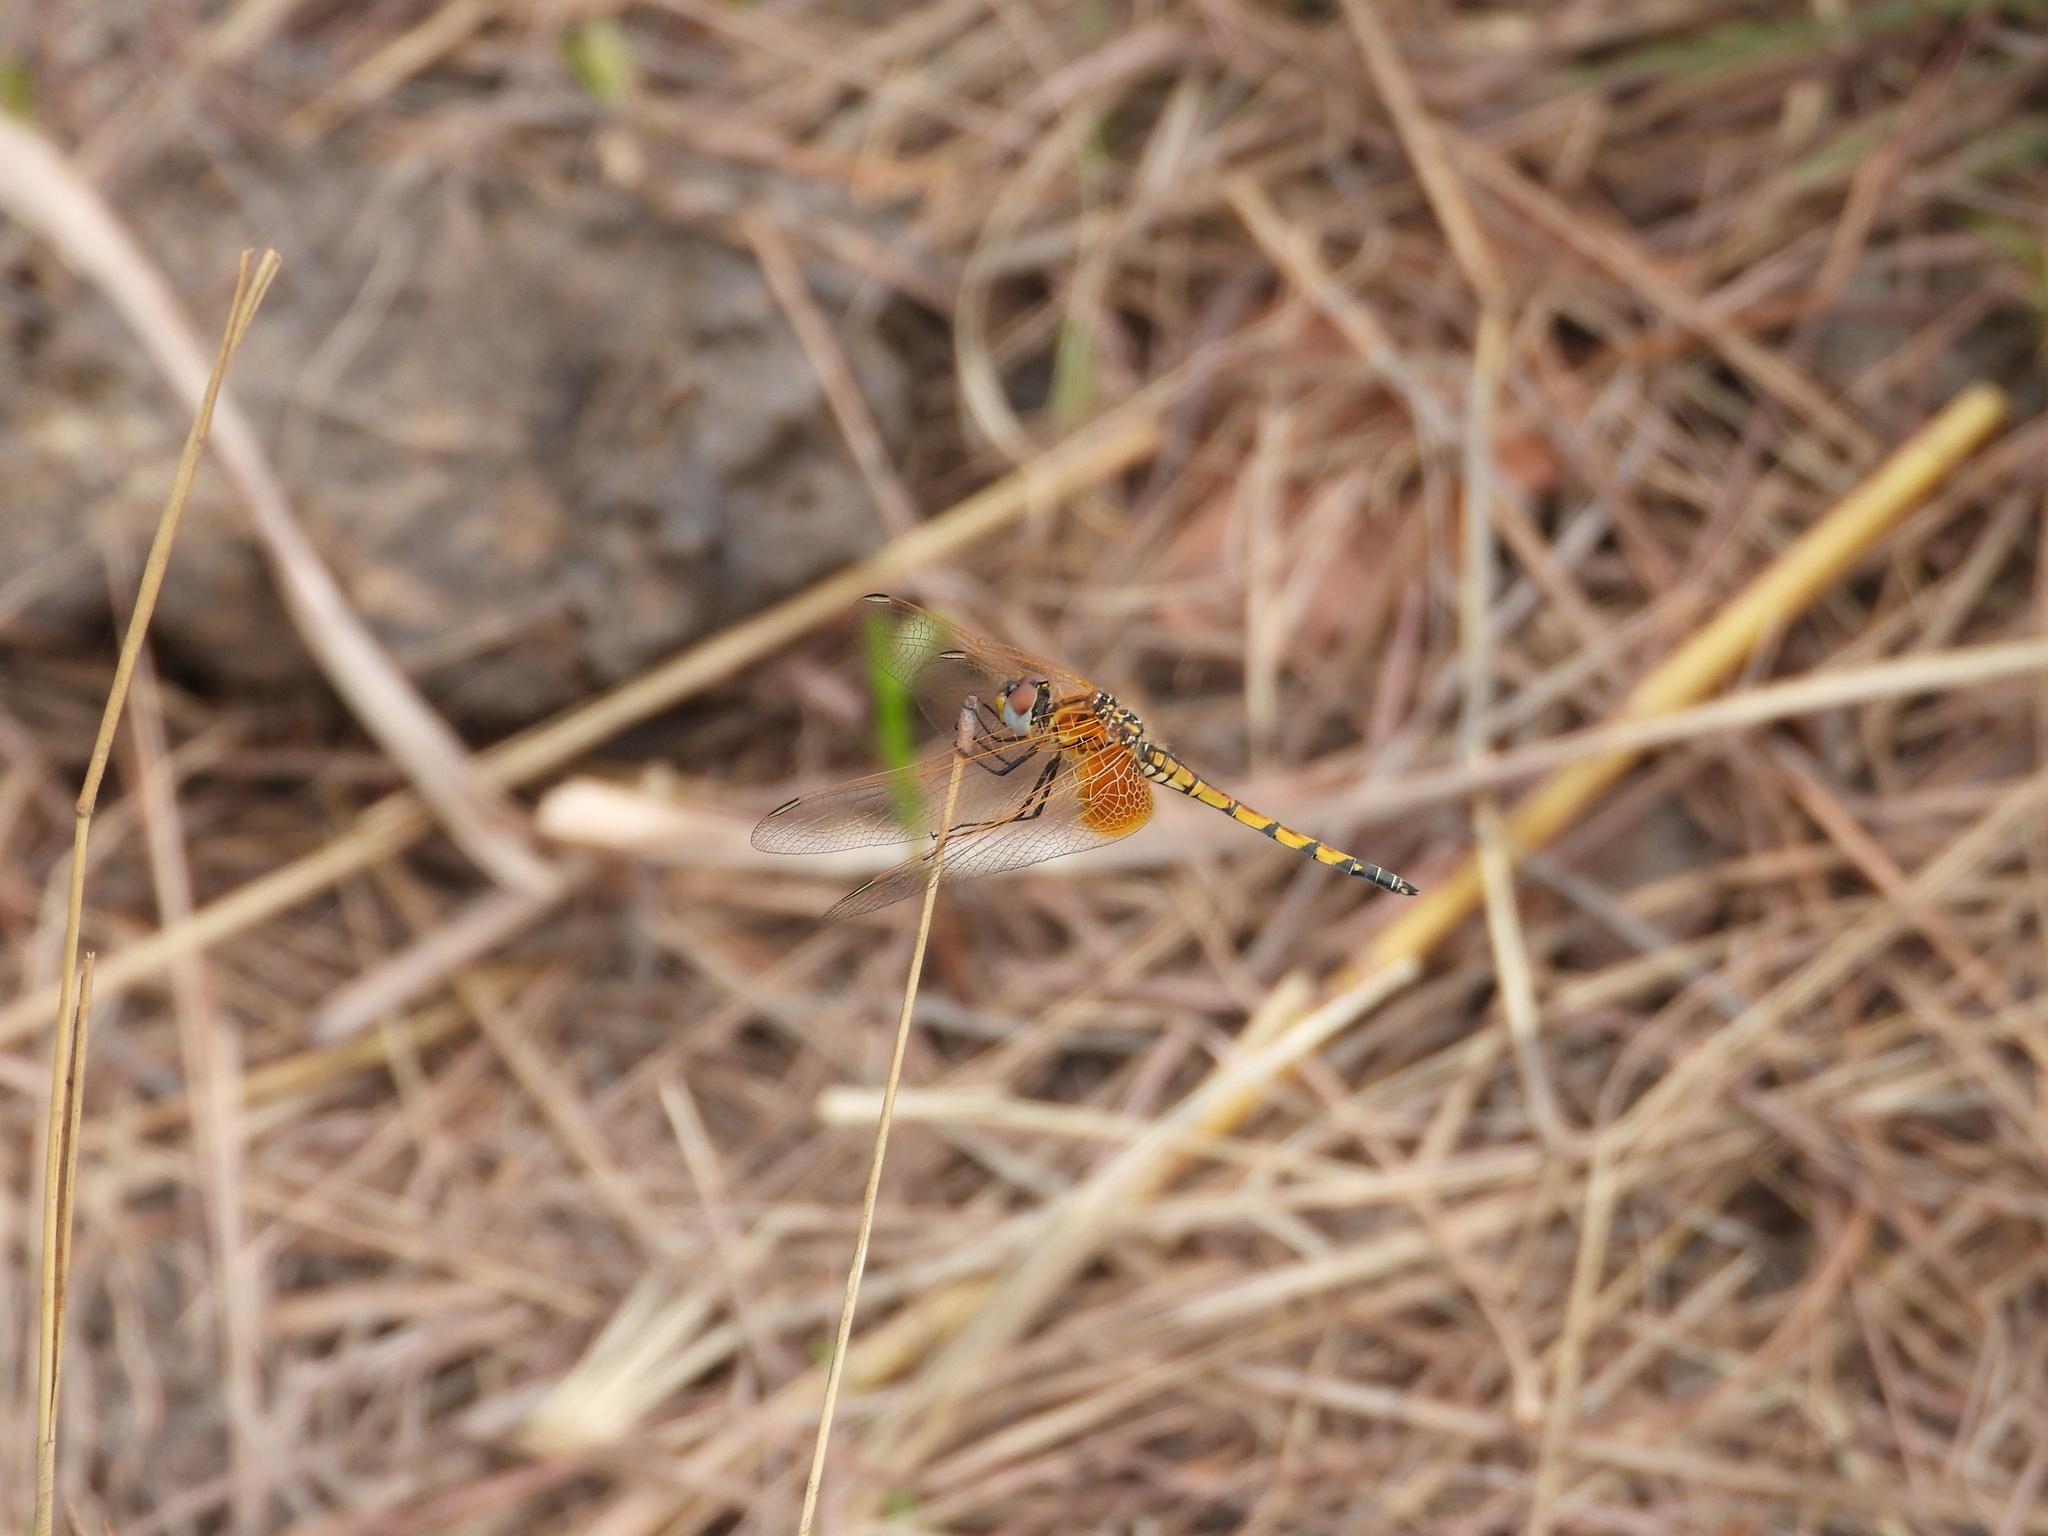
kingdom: Animalia
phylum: Arthropoda
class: Insecta
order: Odonata
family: Libellulidae
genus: Trithemis
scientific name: Trithemis monardi
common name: Monard's dropwing
